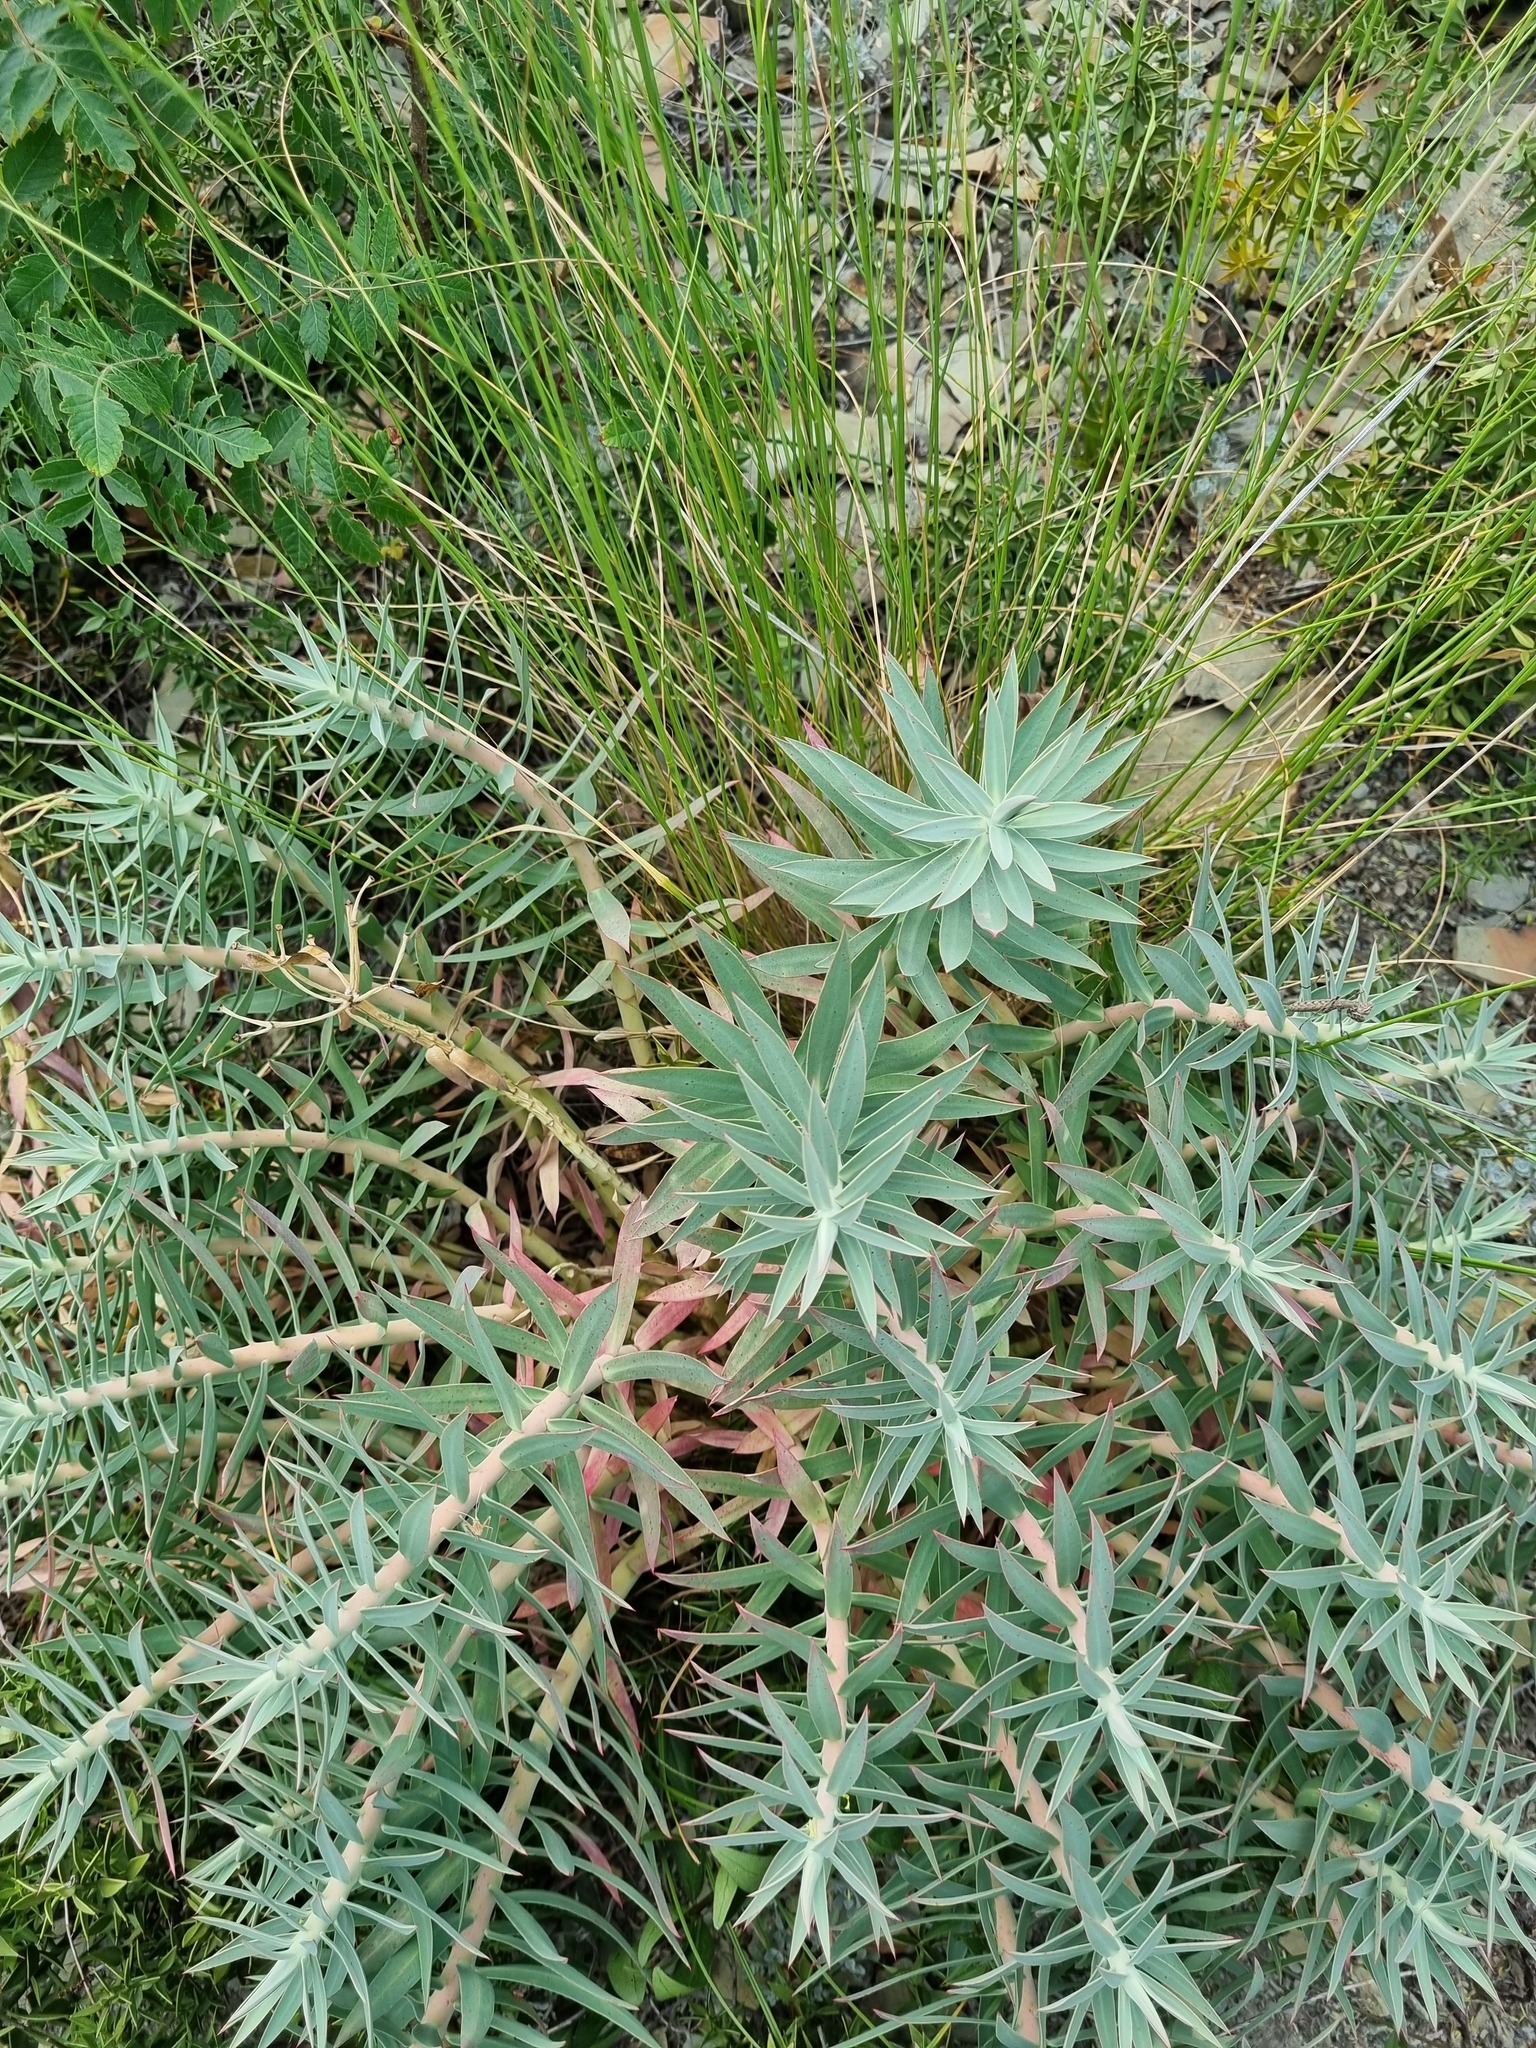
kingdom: Plantae
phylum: Tracheophyta
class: Magnoliopsida
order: Malpighiales
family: Euphorbiaceae
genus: Euphorbia
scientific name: Euphorbia rigida
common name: Upright myrtle spurge
